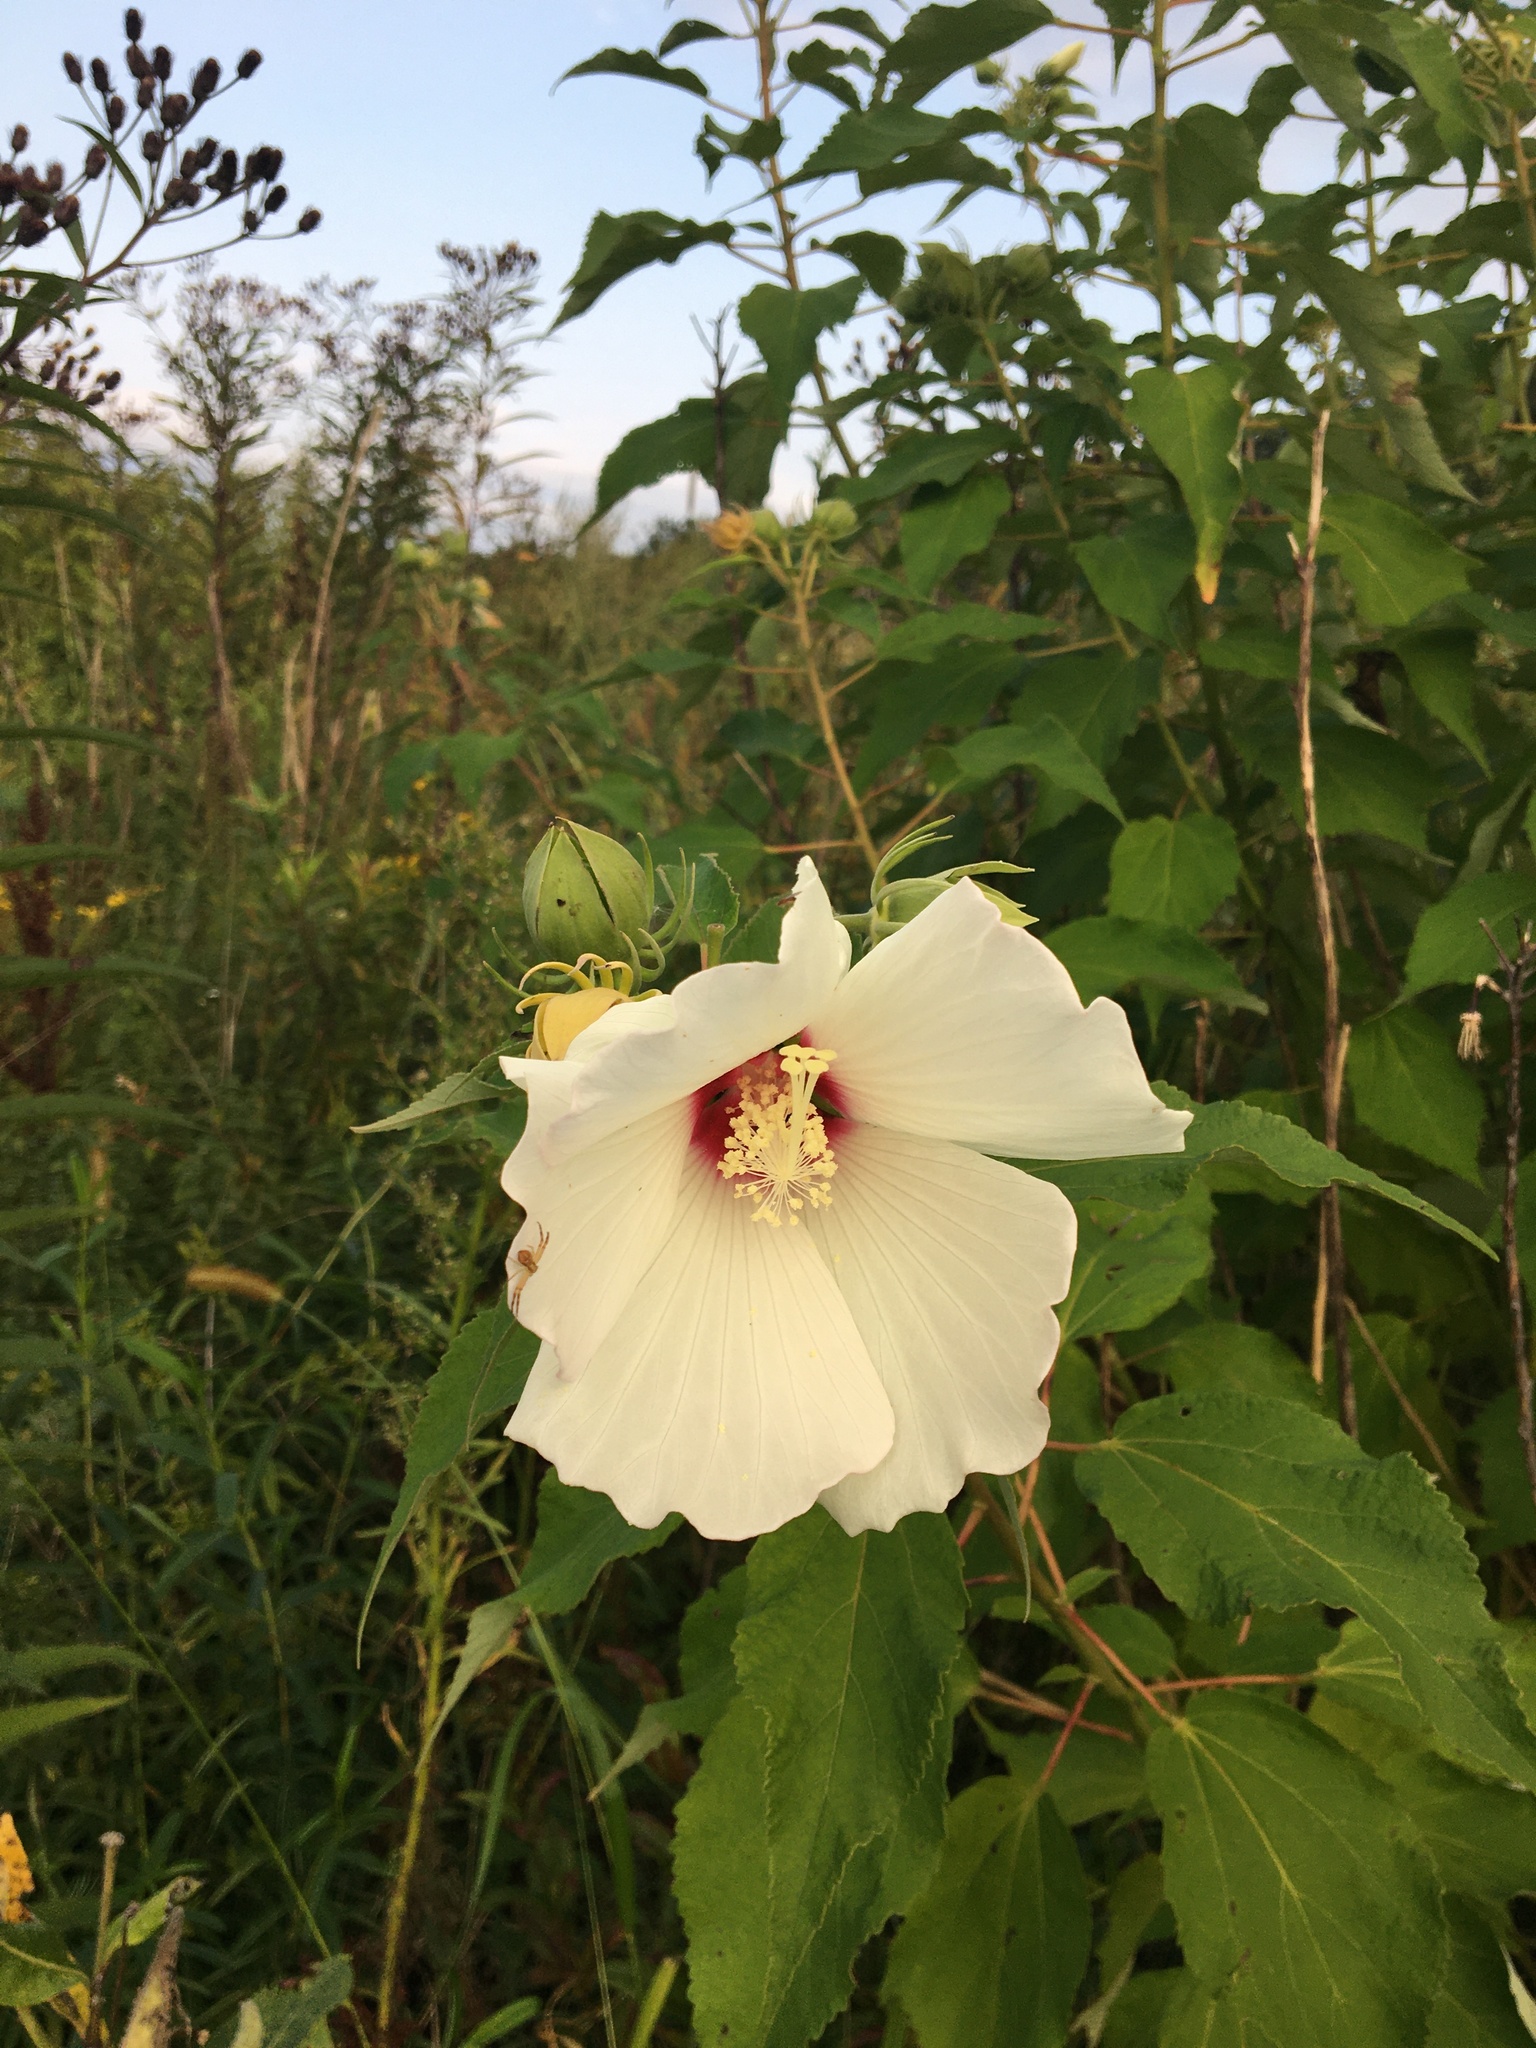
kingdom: Plantae
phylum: Tracheophyta
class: Magnoliopsida
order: Malvales
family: Malvaceae
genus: Hibiscus
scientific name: Hibiscus moscheutos
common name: Common rose-mallow
